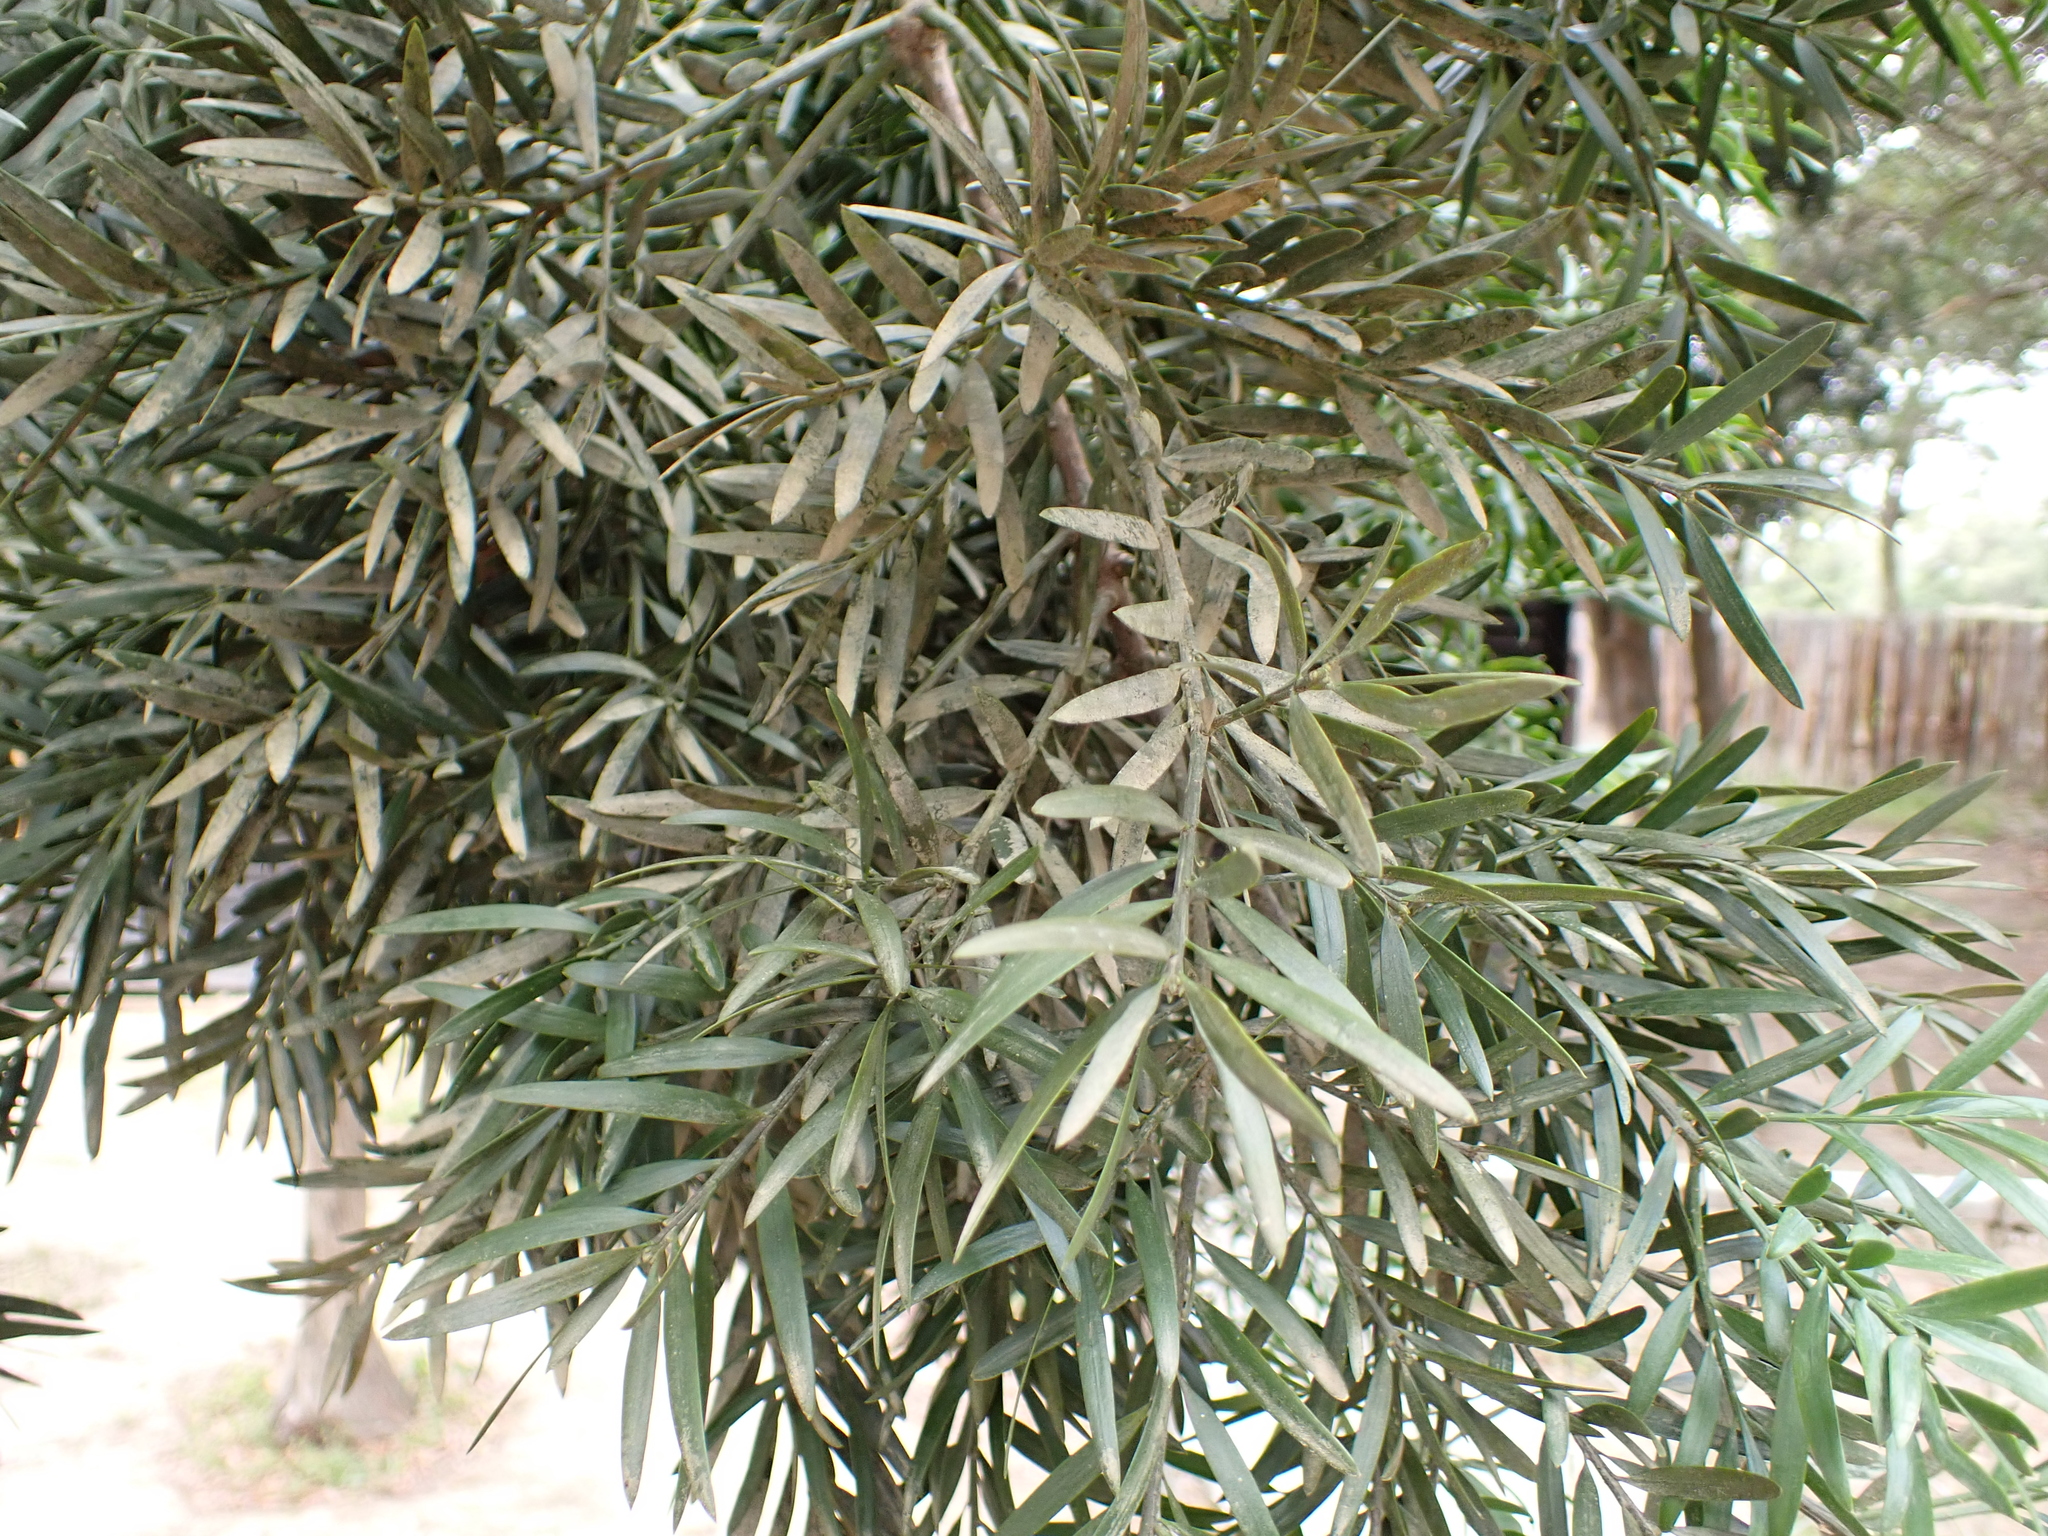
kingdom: Plantae
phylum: Tracheophyta
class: Pinopsida
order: Pinales
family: Podocarpaceae
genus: Podocarpus
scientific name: Podocarpus latifolius
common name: True yellowwood
